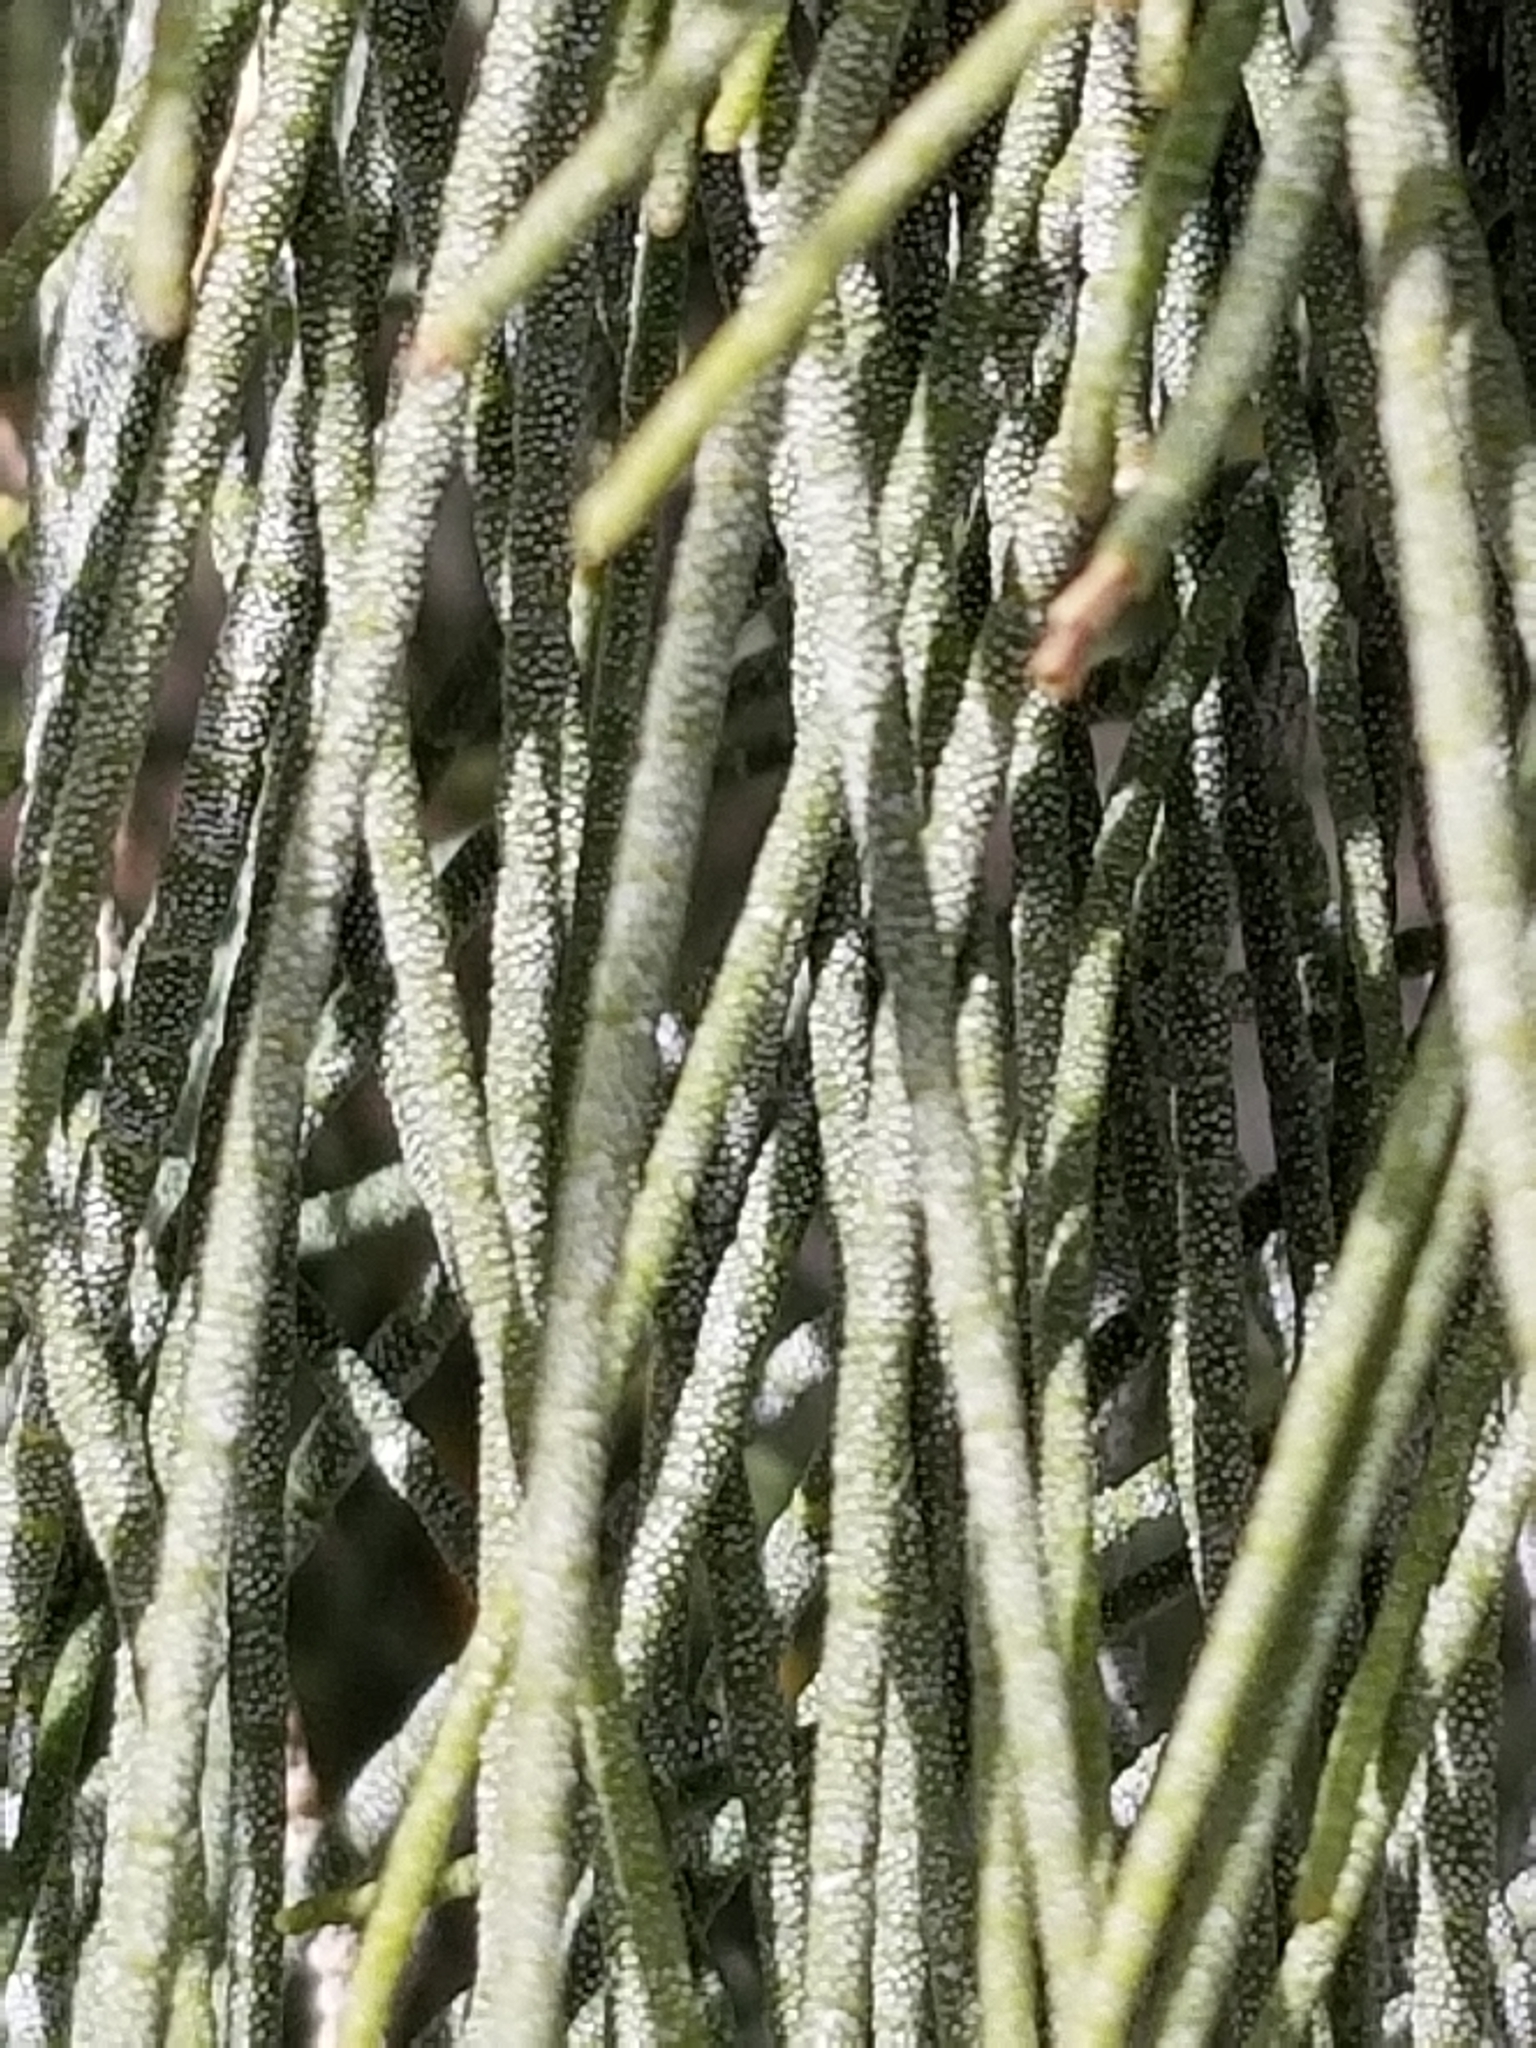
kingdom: Plantae
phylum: Tracheophyta
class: Magnoliopsida
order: Caryophyllales
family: Tamaricaceae
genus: Tamarix
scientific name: Tamarix aphylla
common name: Athel tamarisk
